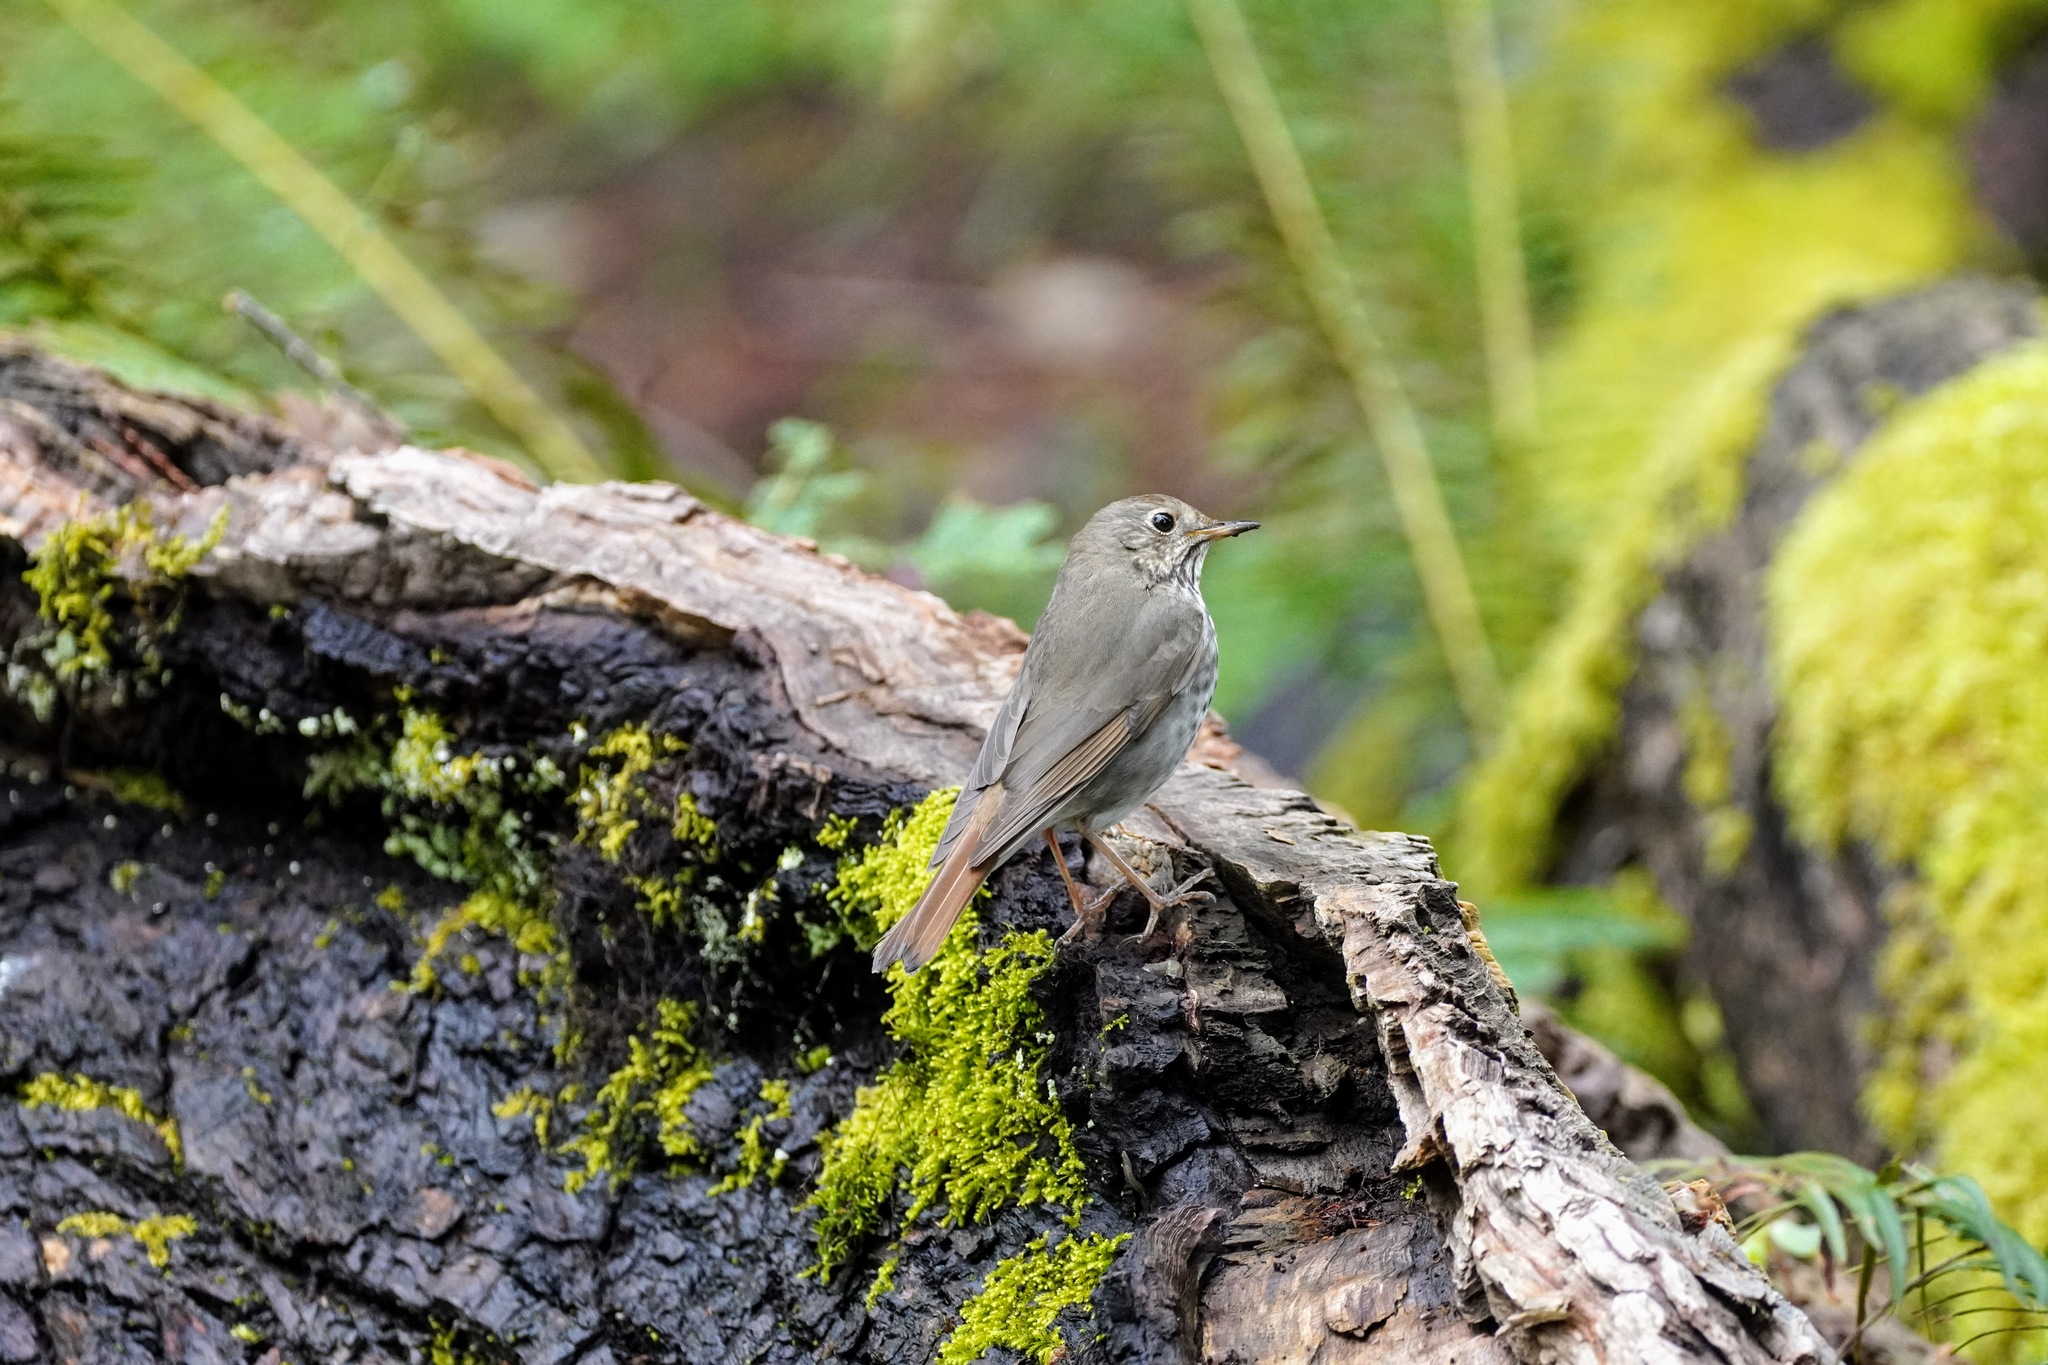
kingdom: Animalia
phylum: Chordata
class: Aves
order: Passeriformes
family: Turdidae
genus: Catharus
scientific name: Catharus guttatus
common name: Hermit thrush
